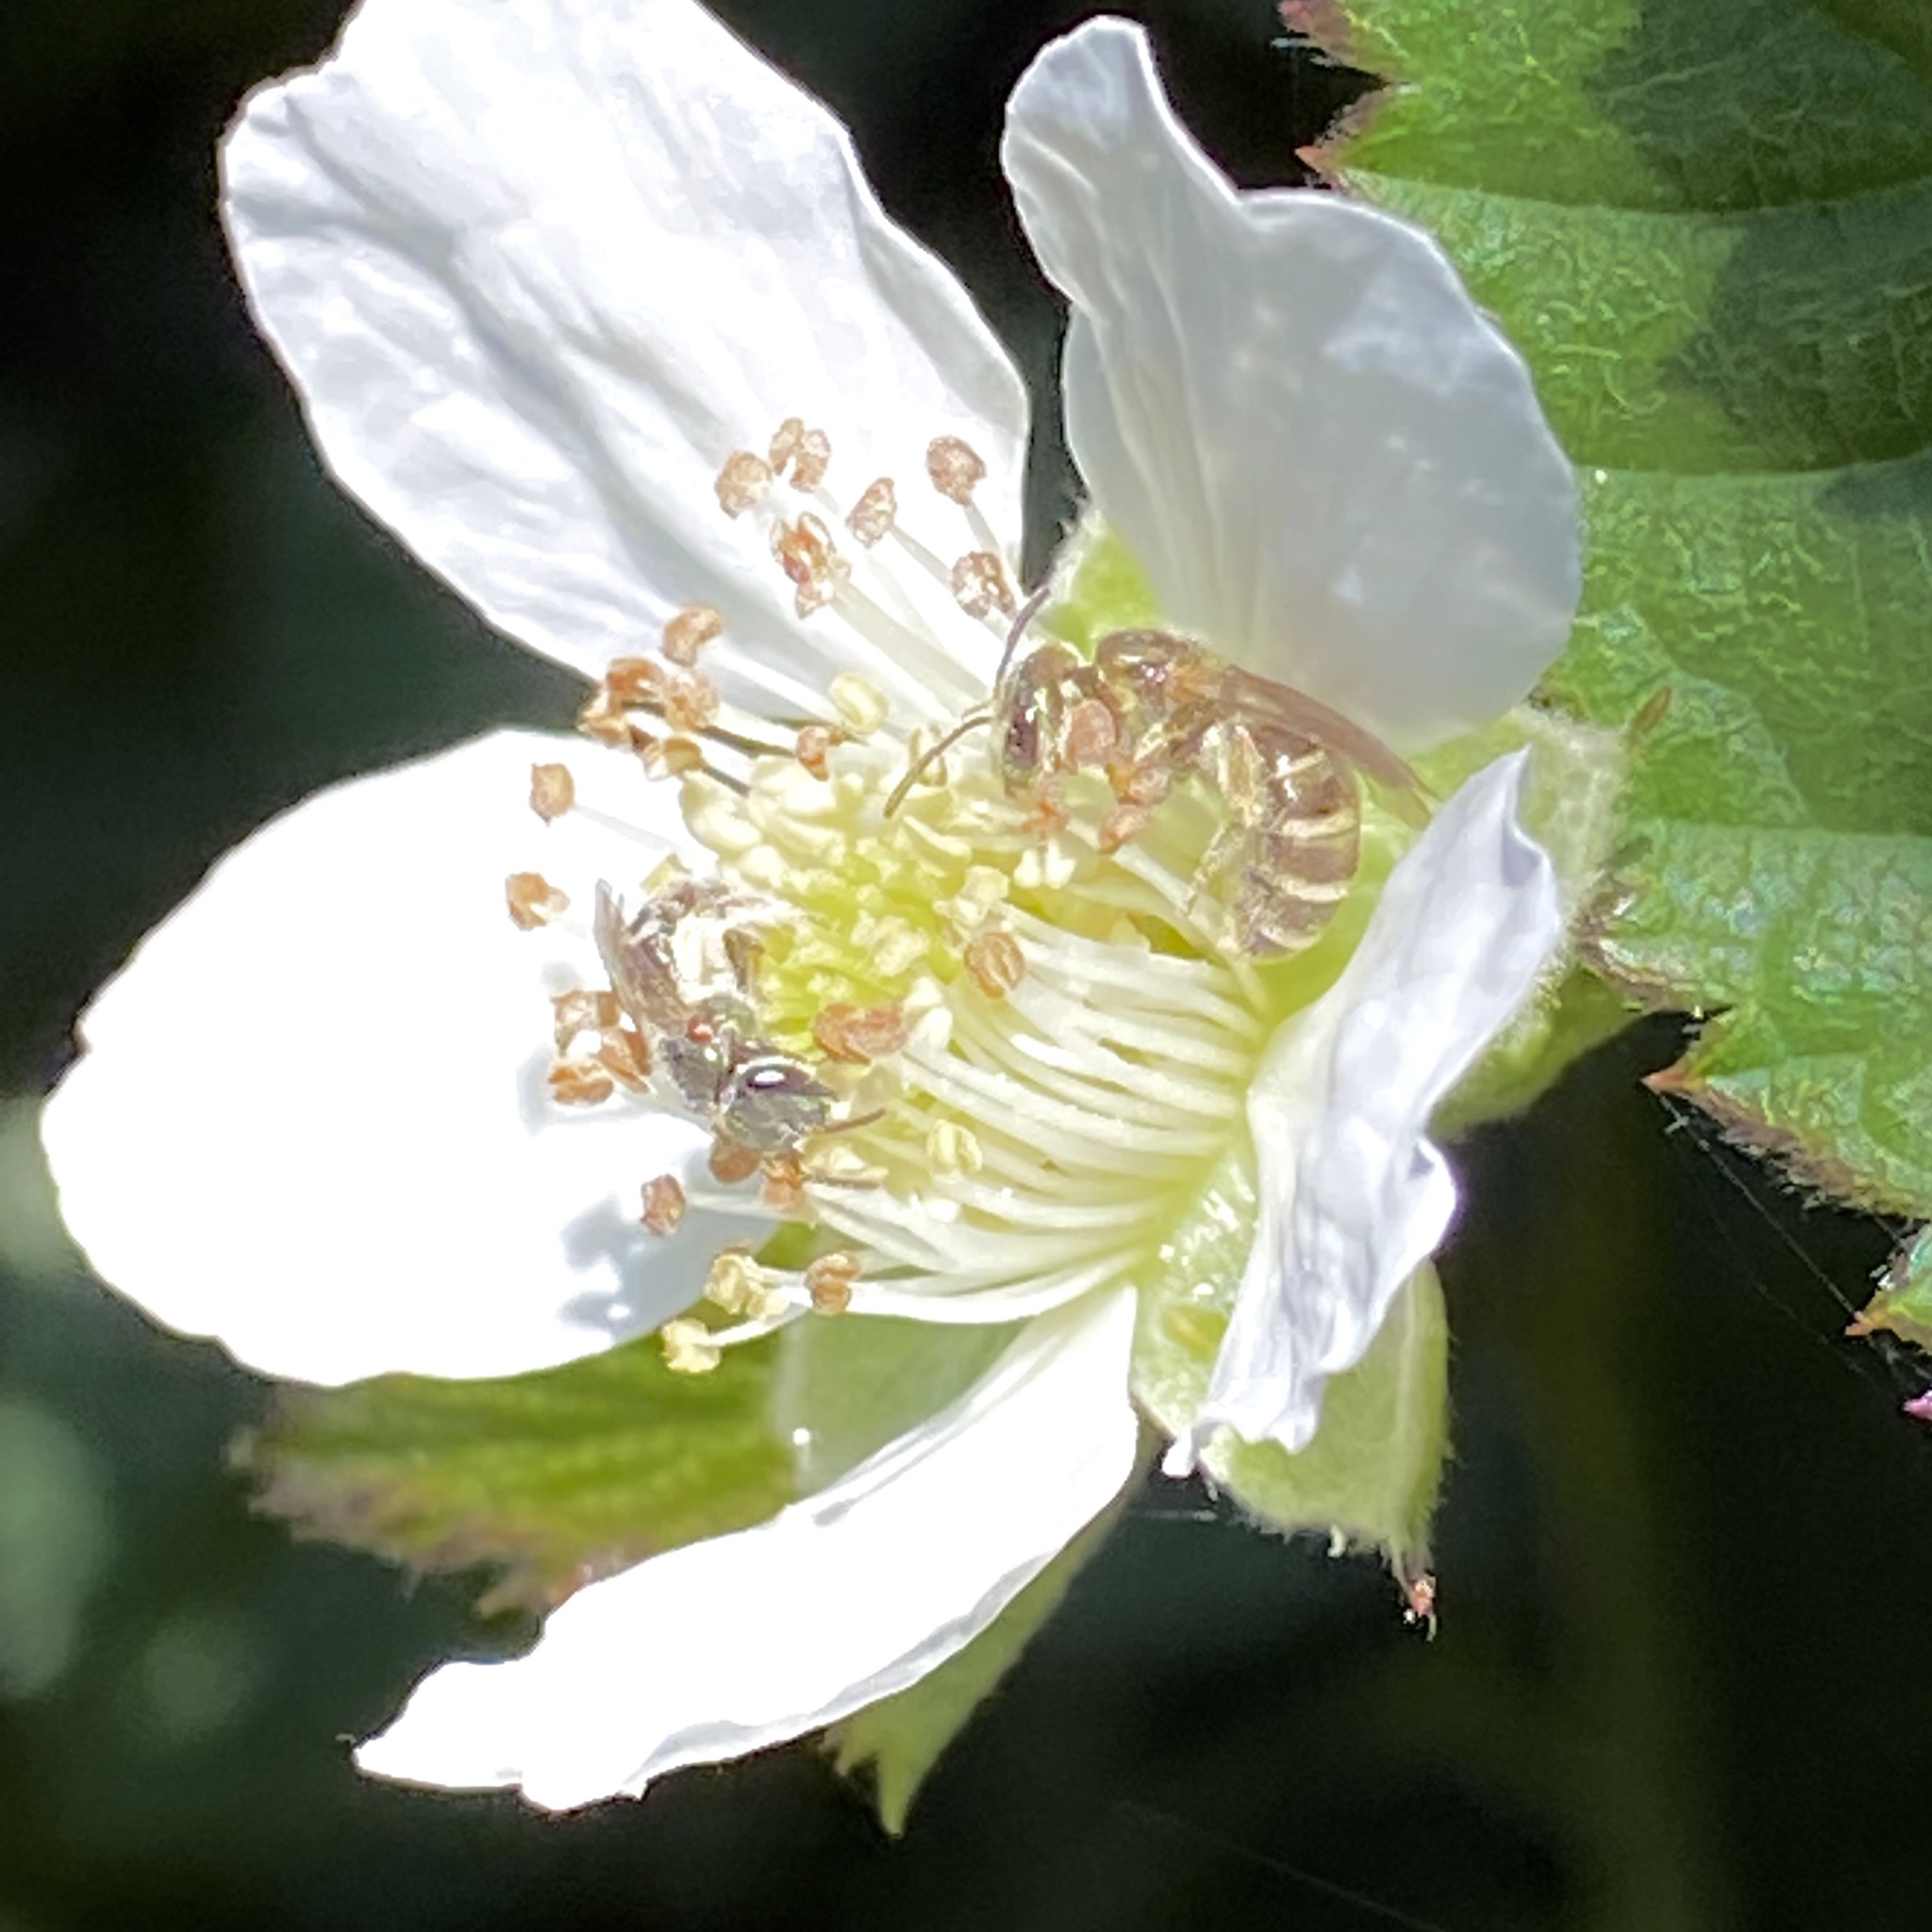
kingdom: Animalia
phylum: Arthropoda
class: Insecta
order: Hymenoptera
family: Halictidae
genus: Halictus
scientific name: Halictus tripartitus
